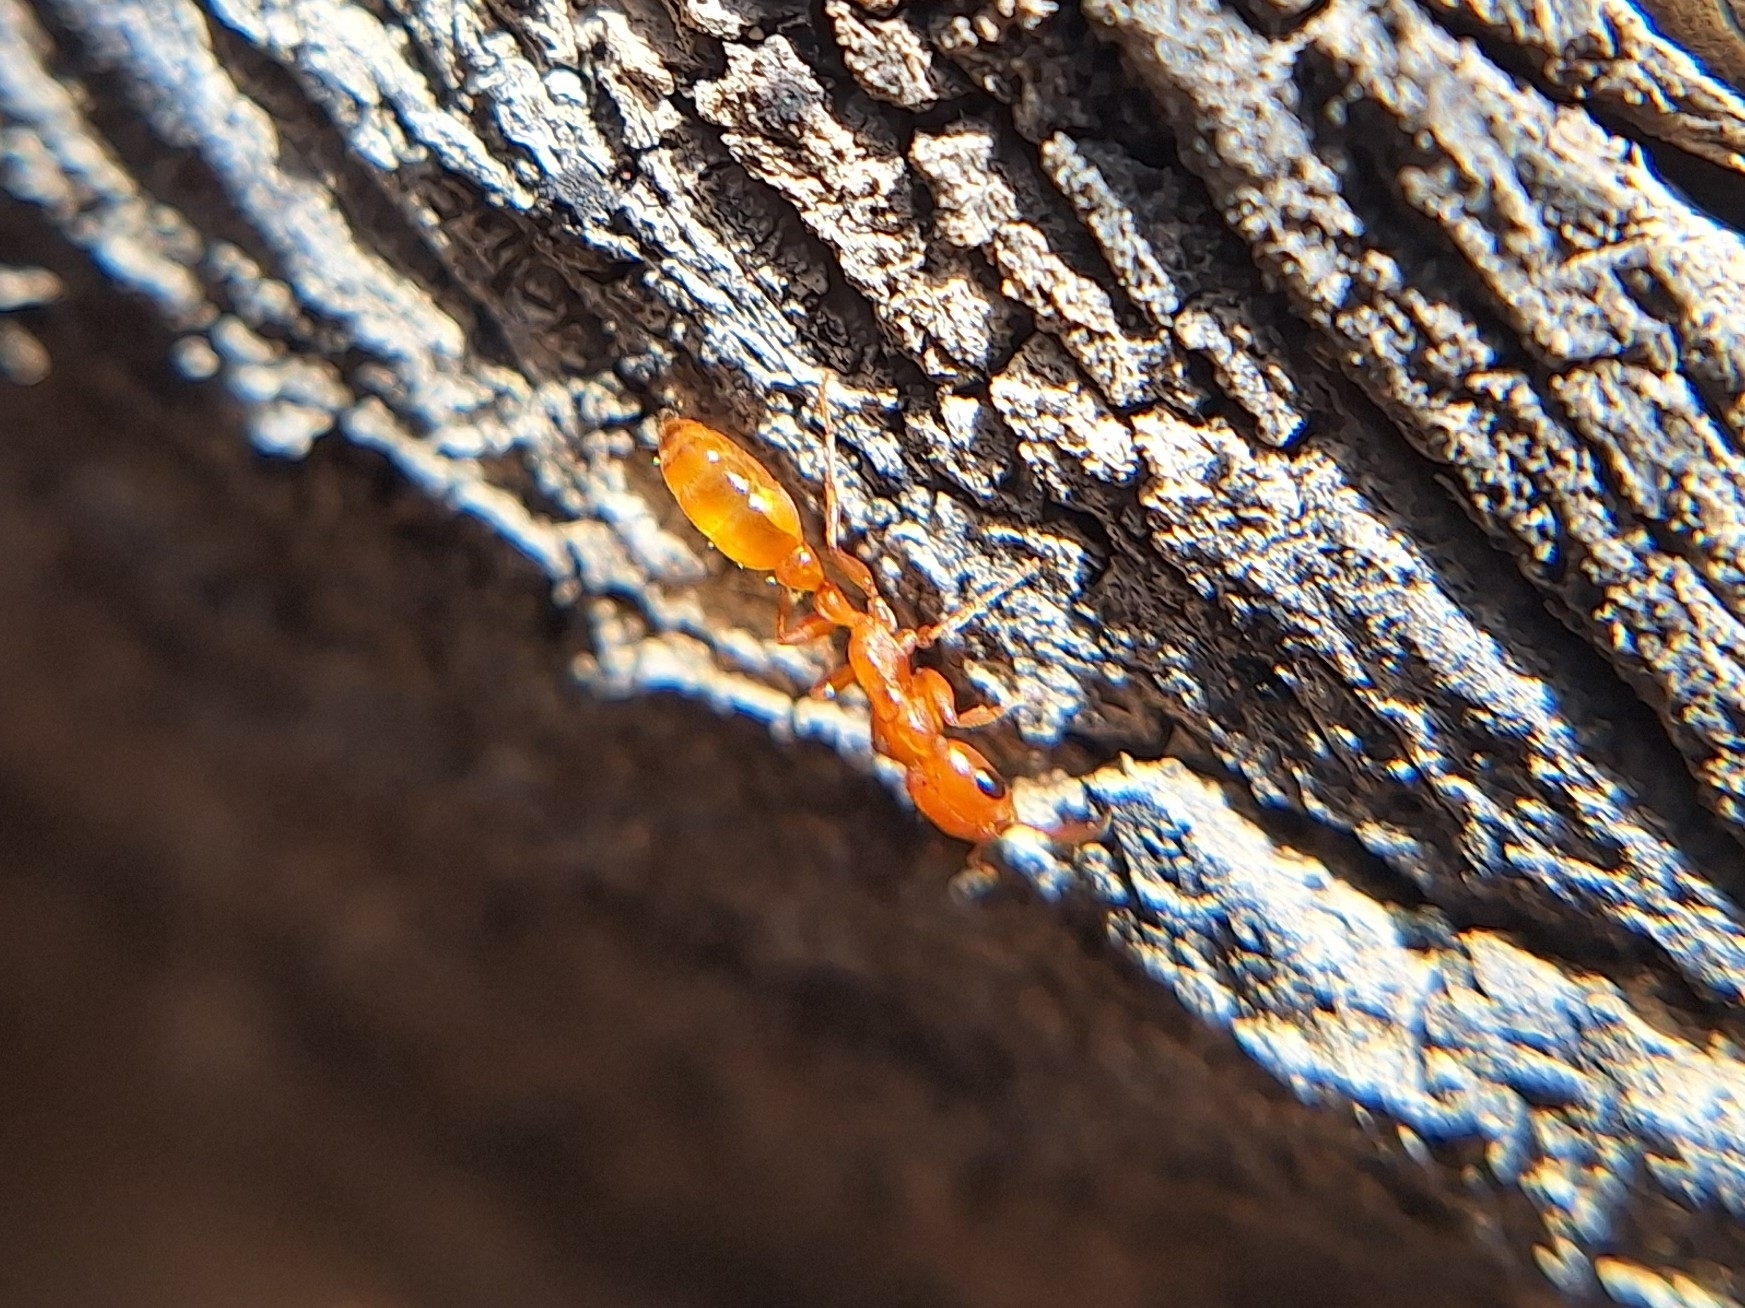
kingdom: Animalia
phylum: Arthropoda
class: Insecta
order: Hymenoptera
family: Formicidae
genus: Pseudomyrmex
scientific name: Pseudomyrmex apache
